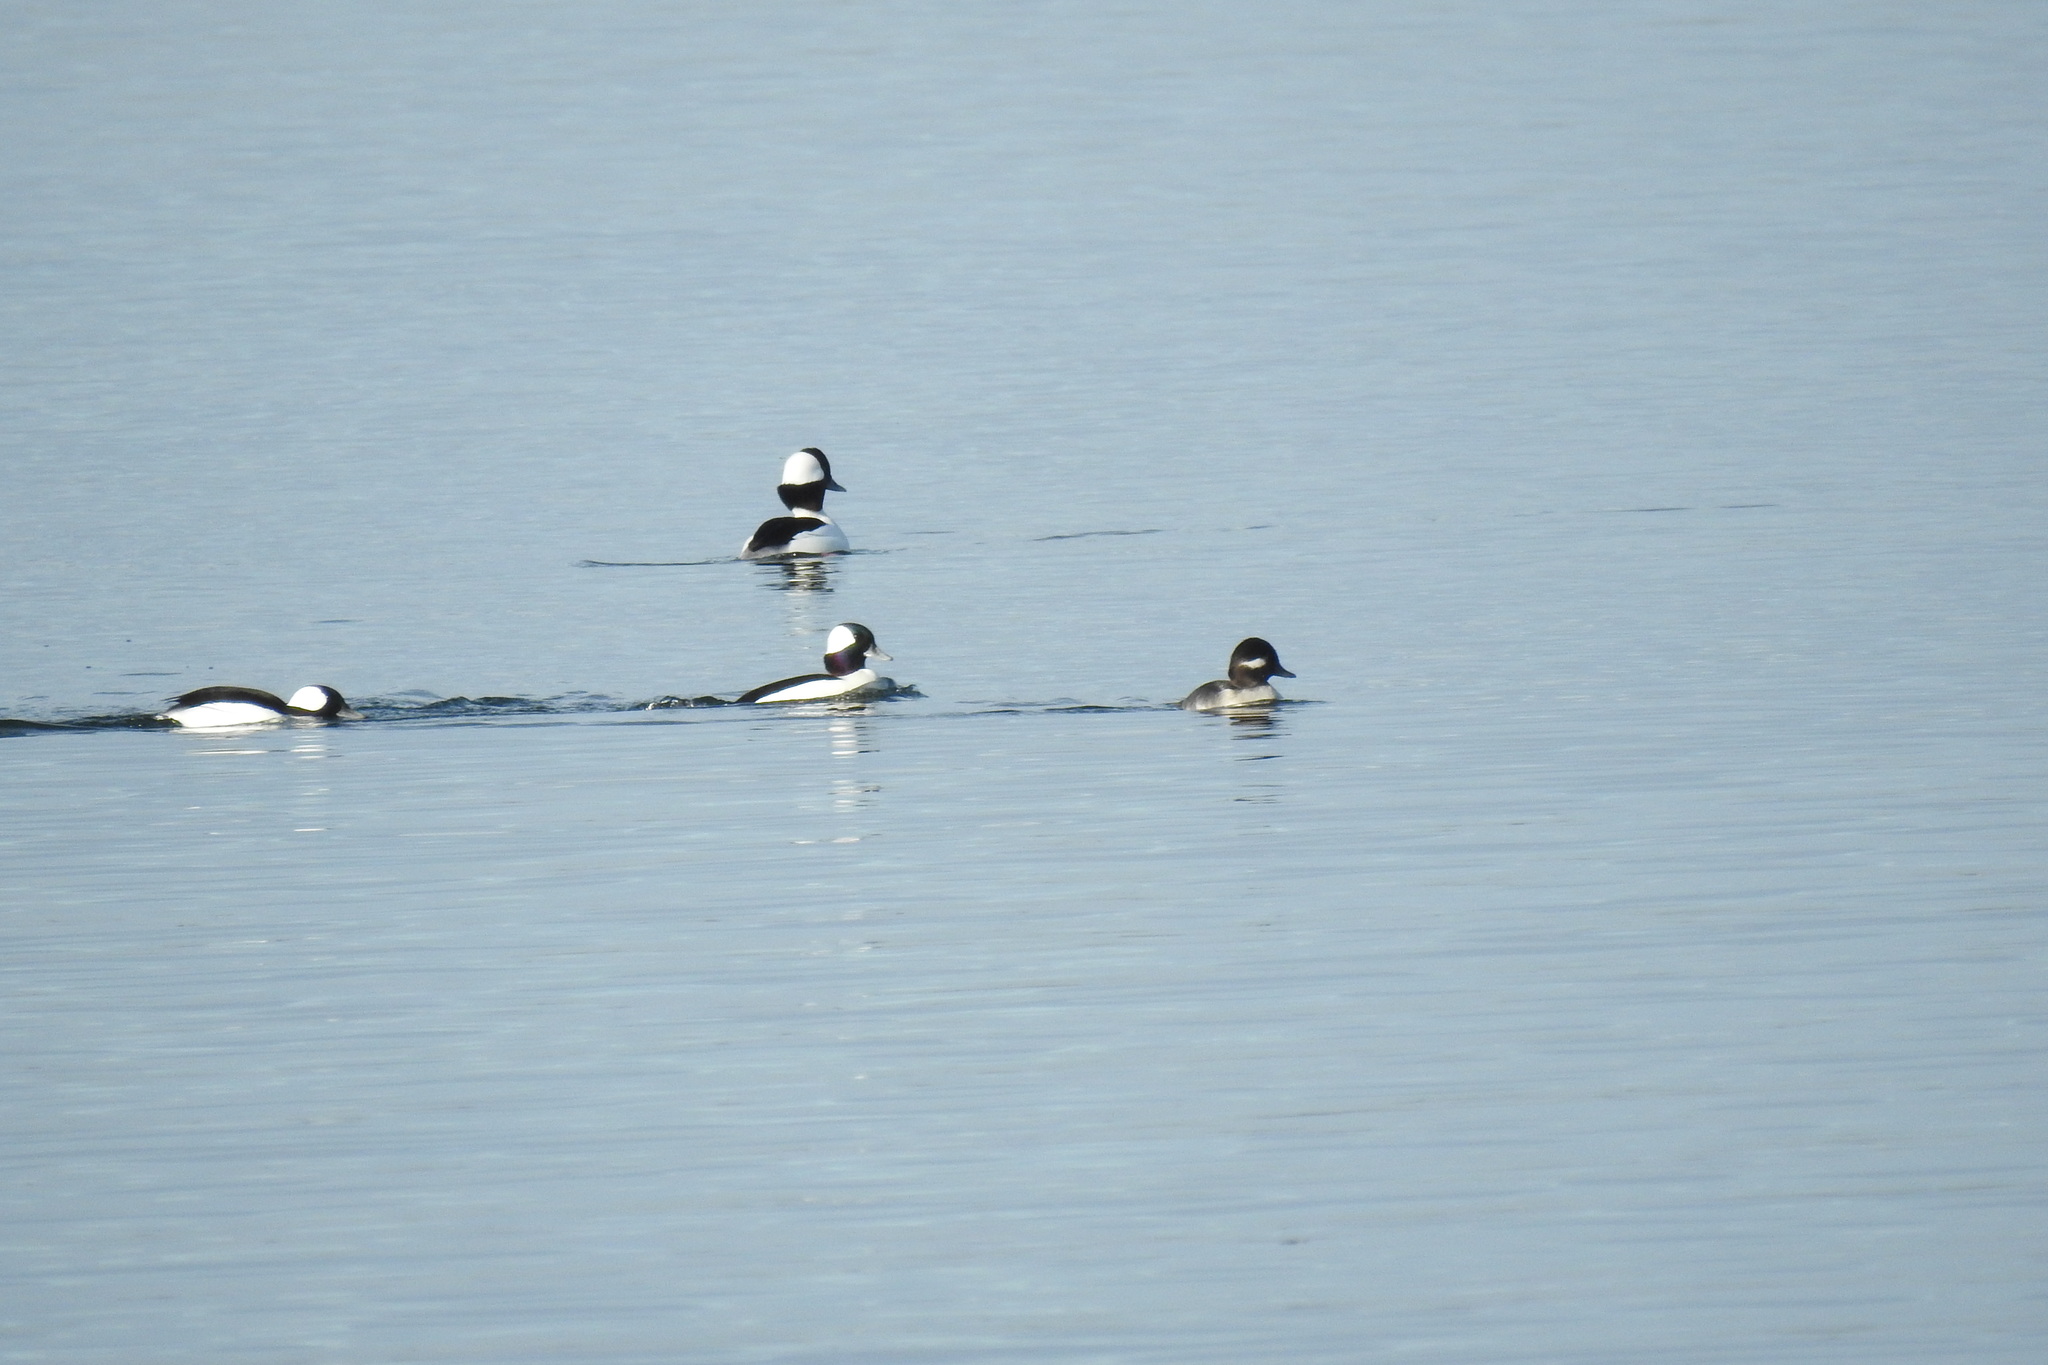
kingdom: Animalia
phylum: Chordata
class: Aves
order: Anseriformes
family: Anatidae
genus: Bucephala
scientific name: Bucephala albeola
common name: Bufflehead
